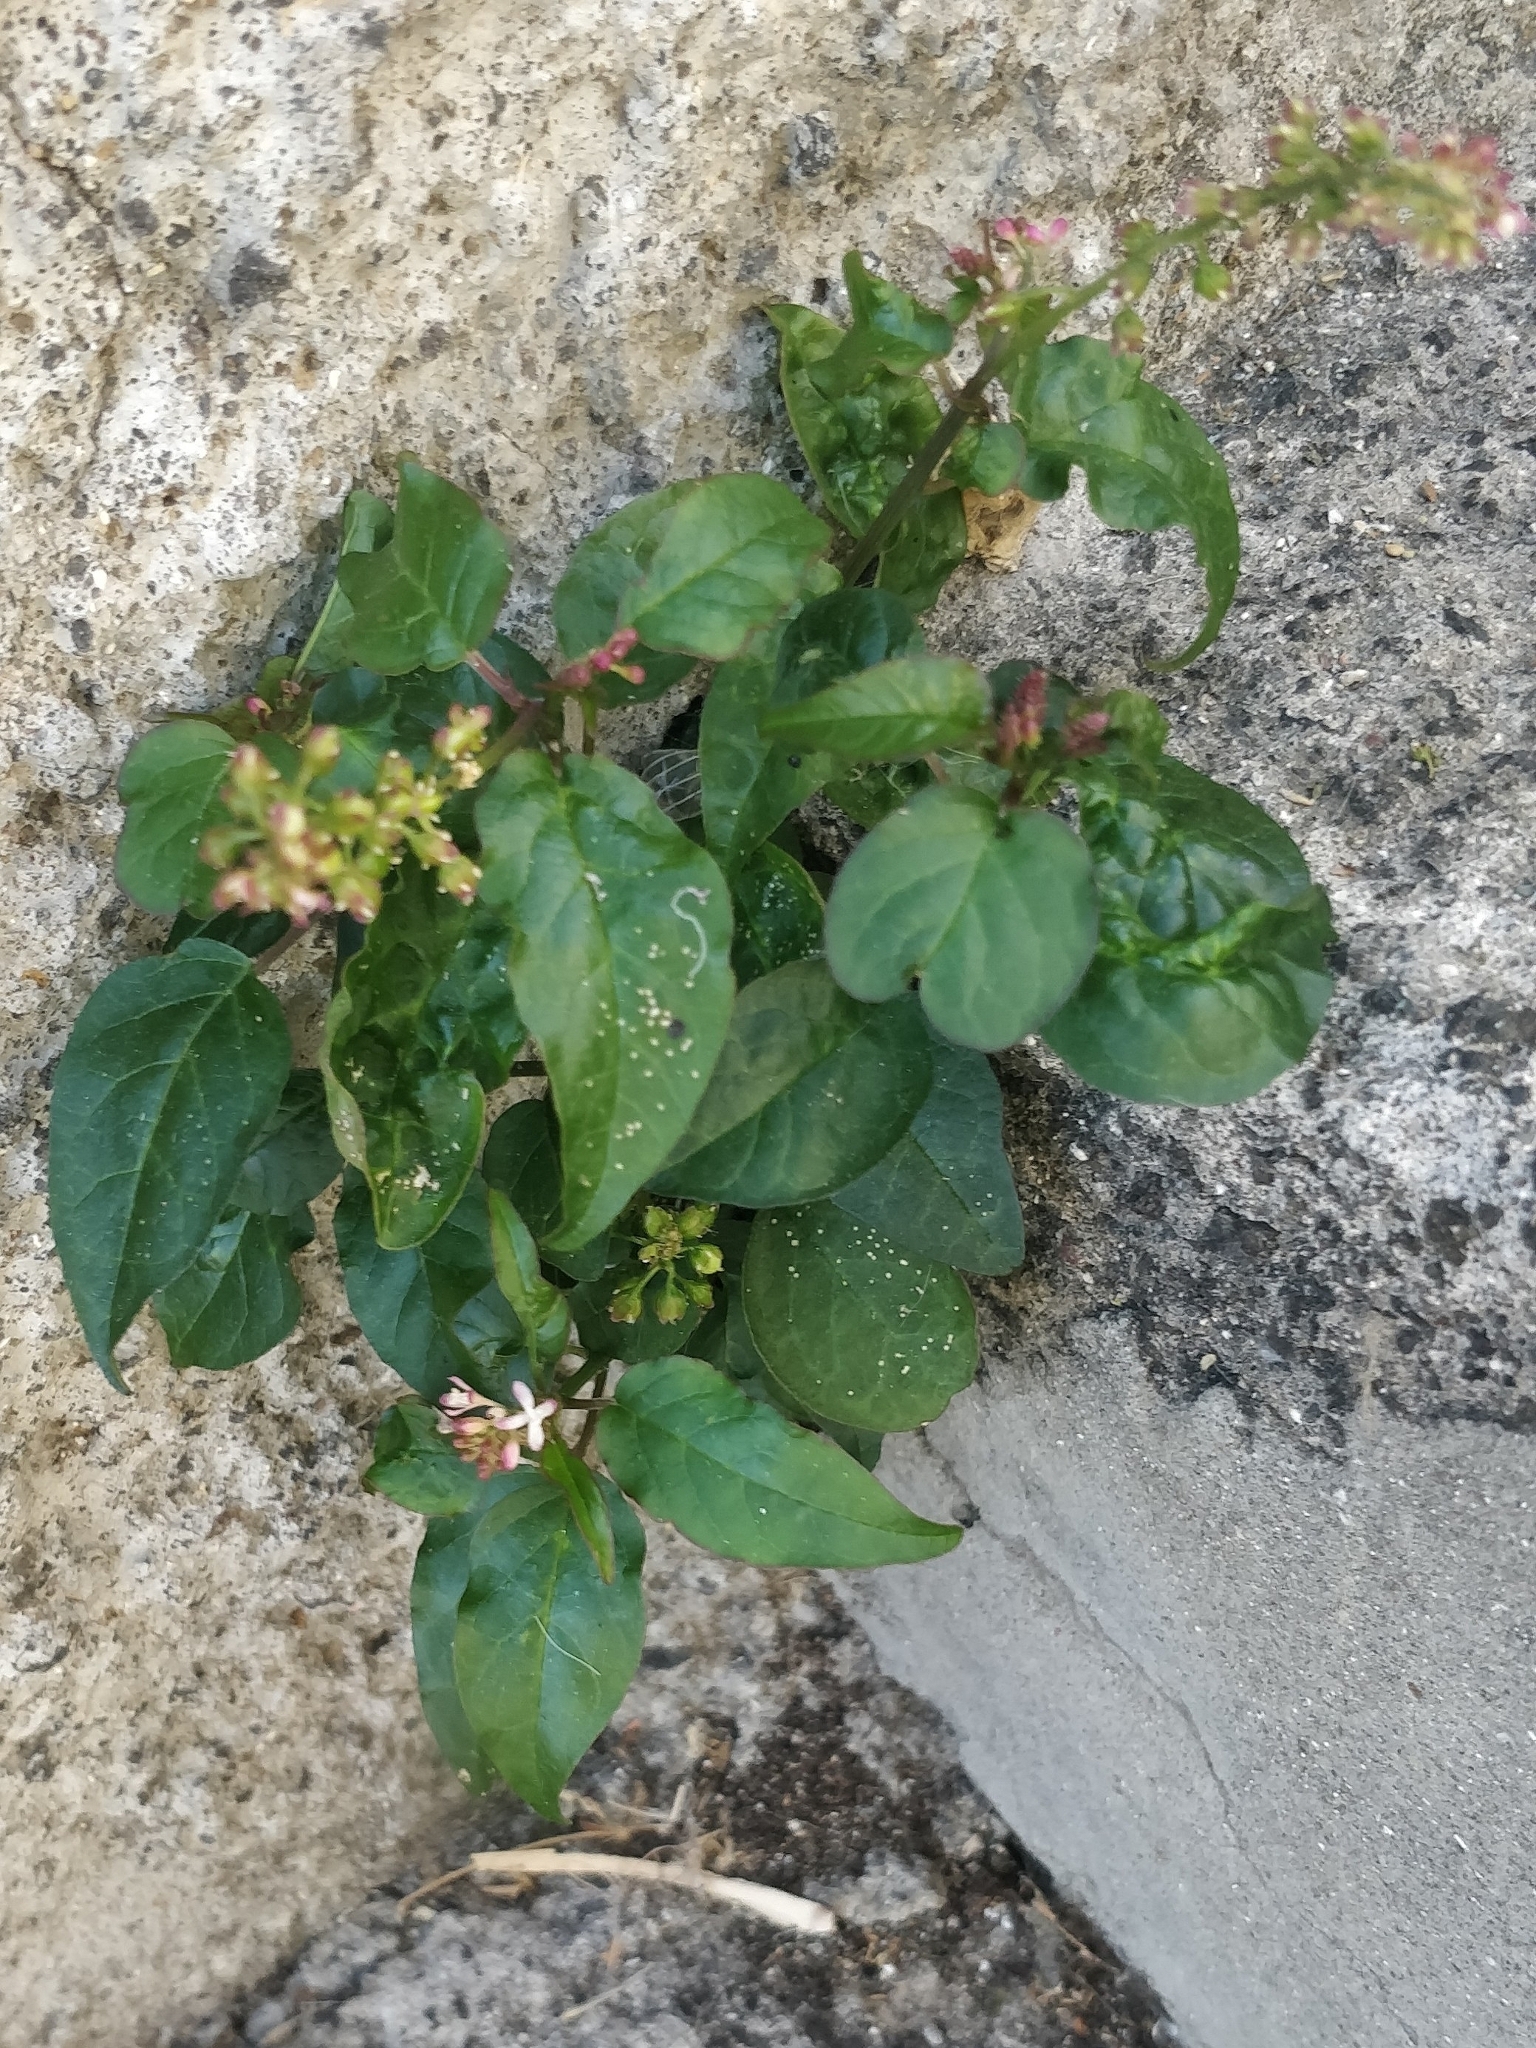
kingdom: Plantae
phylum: Tracheophyta
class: Magnoliopsida
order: Caryophyllales
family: Phytolaccaceae
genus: Rivina
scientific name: Rivina humilis
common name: Rougeplant
